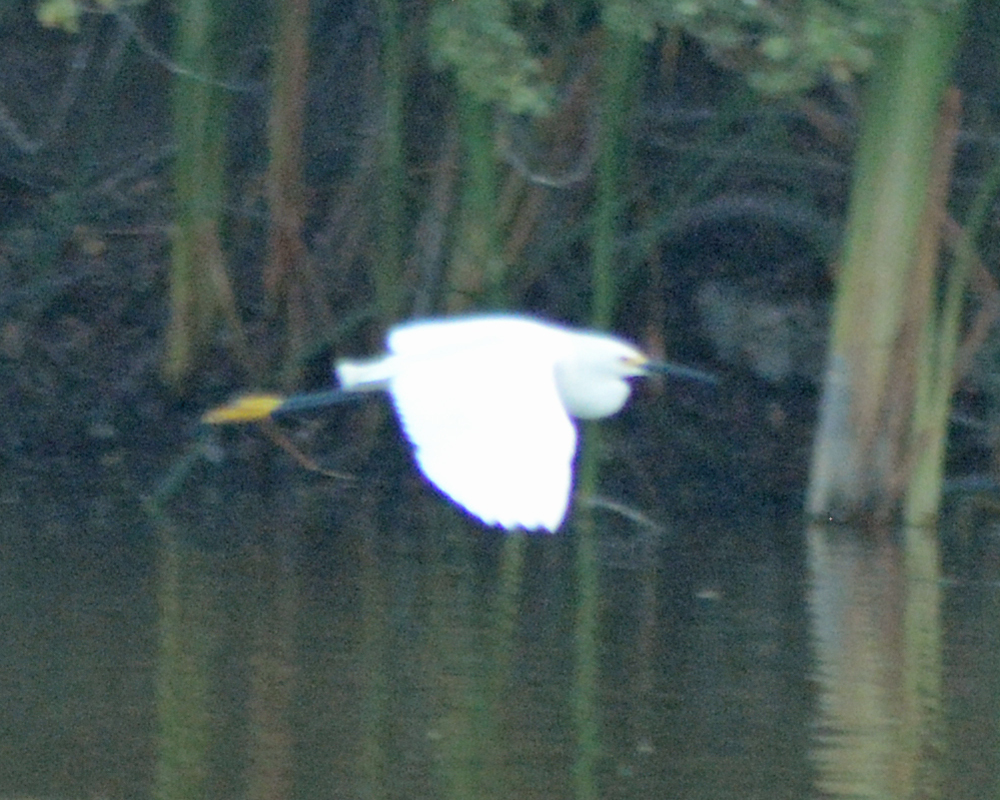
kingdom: Animalia
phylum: Chordata
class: Aves
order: Pelecaniformes
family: Ardeidae
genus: Egretta
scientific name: Egretta thula
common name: Snowy egret
